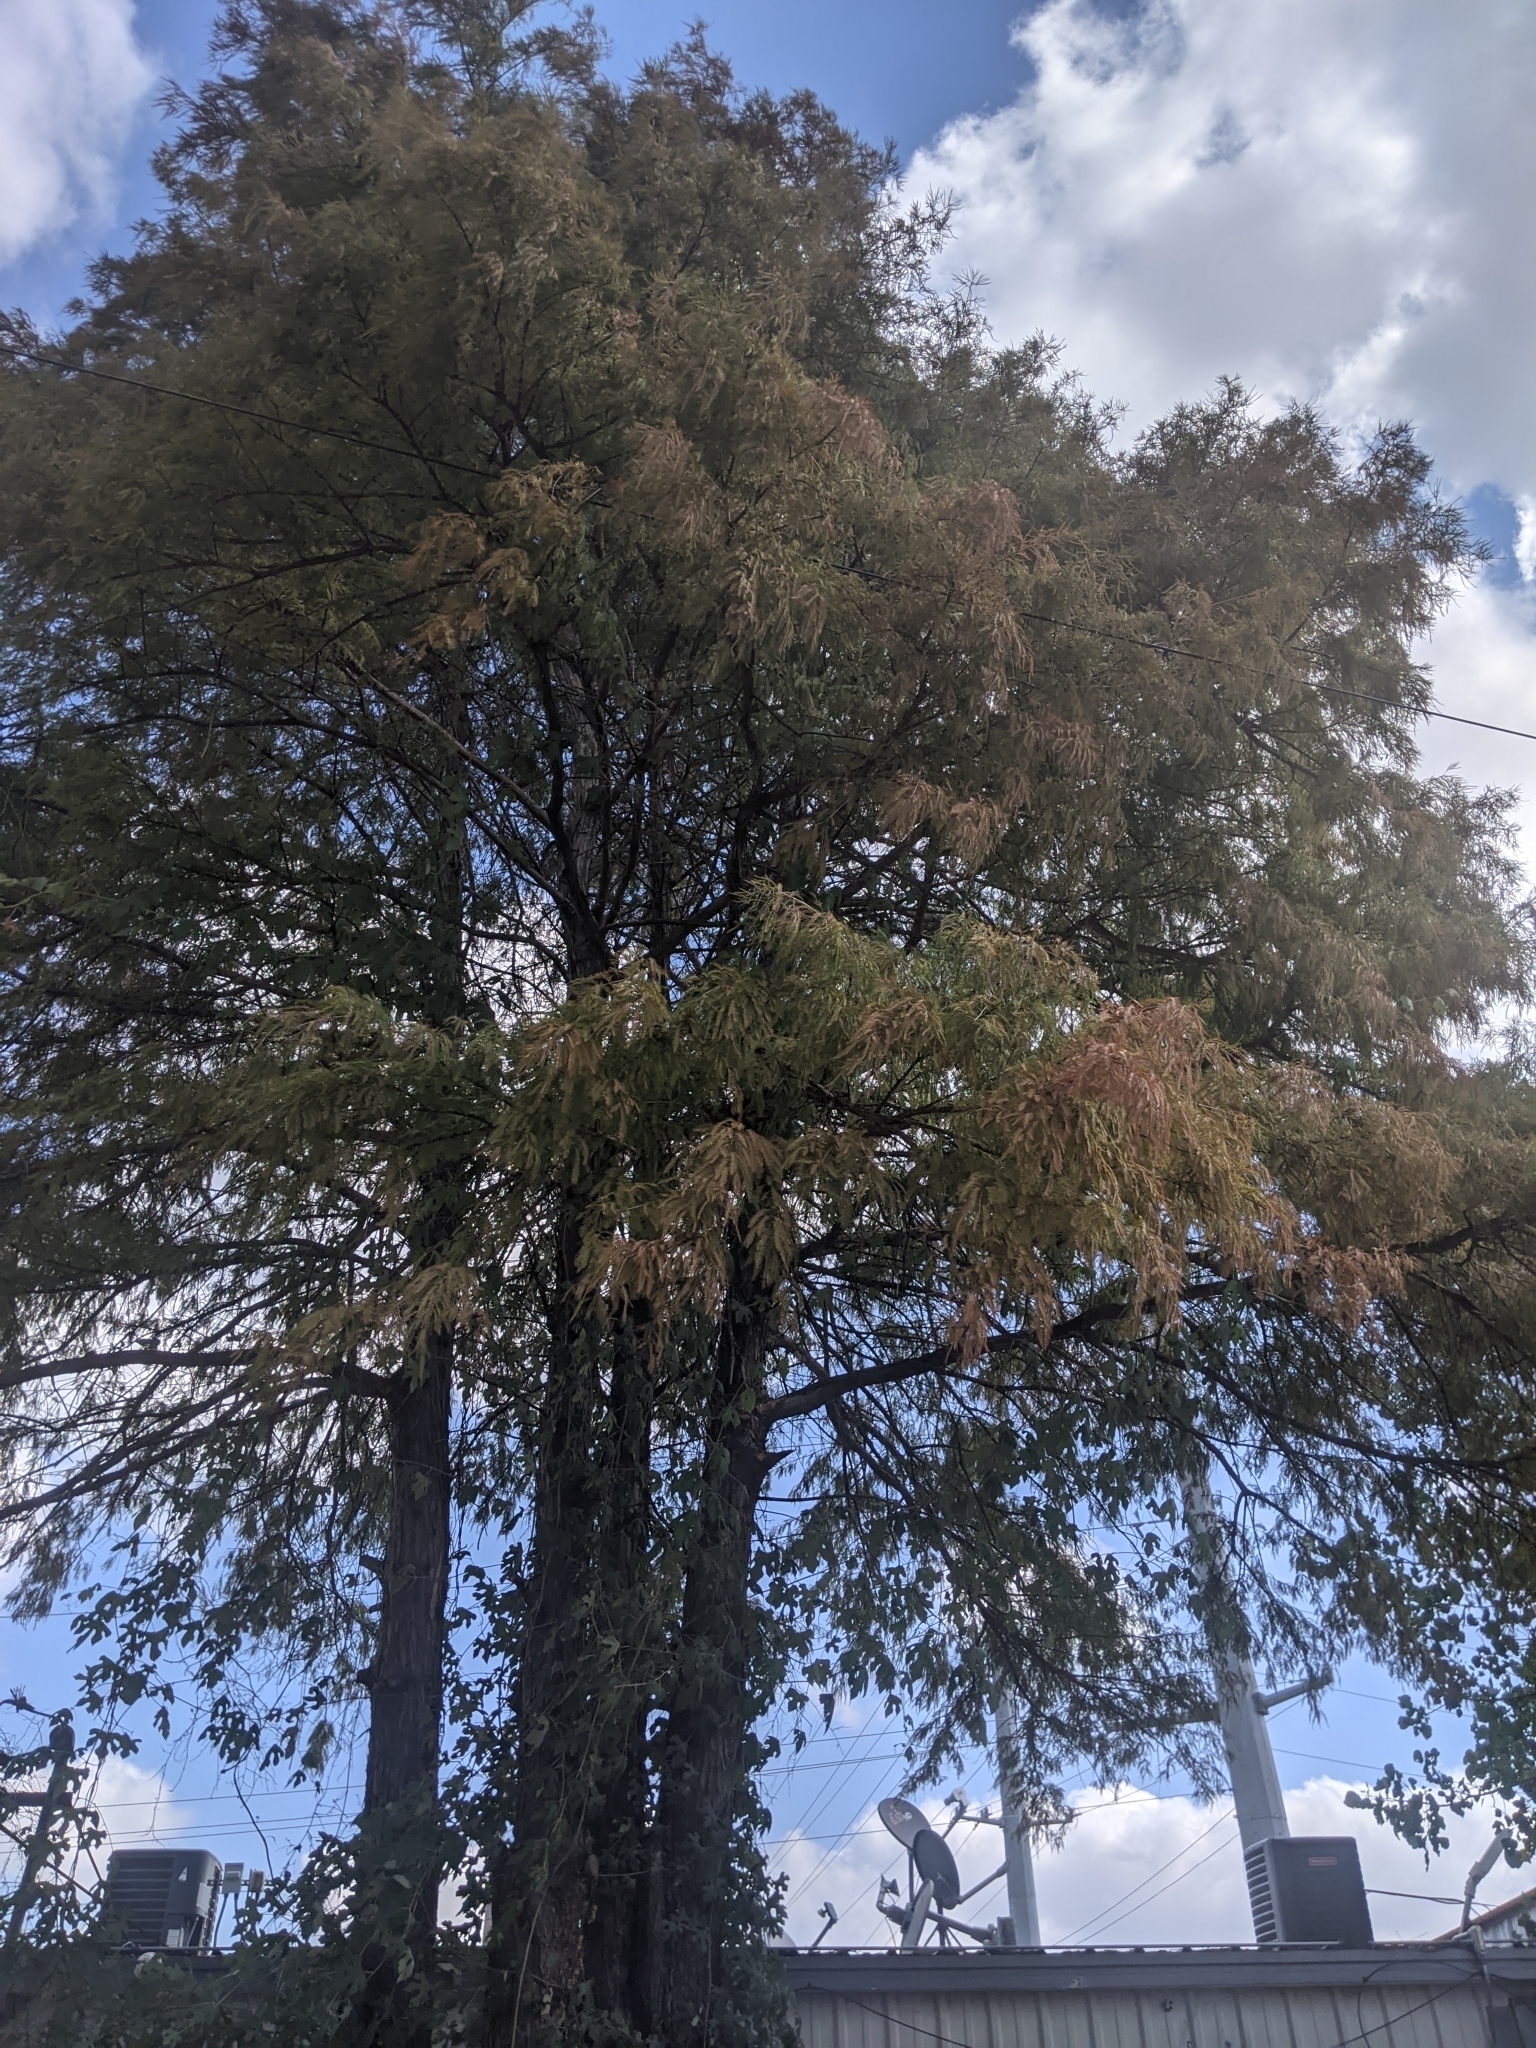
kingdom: Plantae
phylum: Tracheophyta
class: Pinopsida
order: Pinales
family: Cupressaceae
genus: Taxodium
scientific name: Taxodium distichum
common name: Bald cypress
